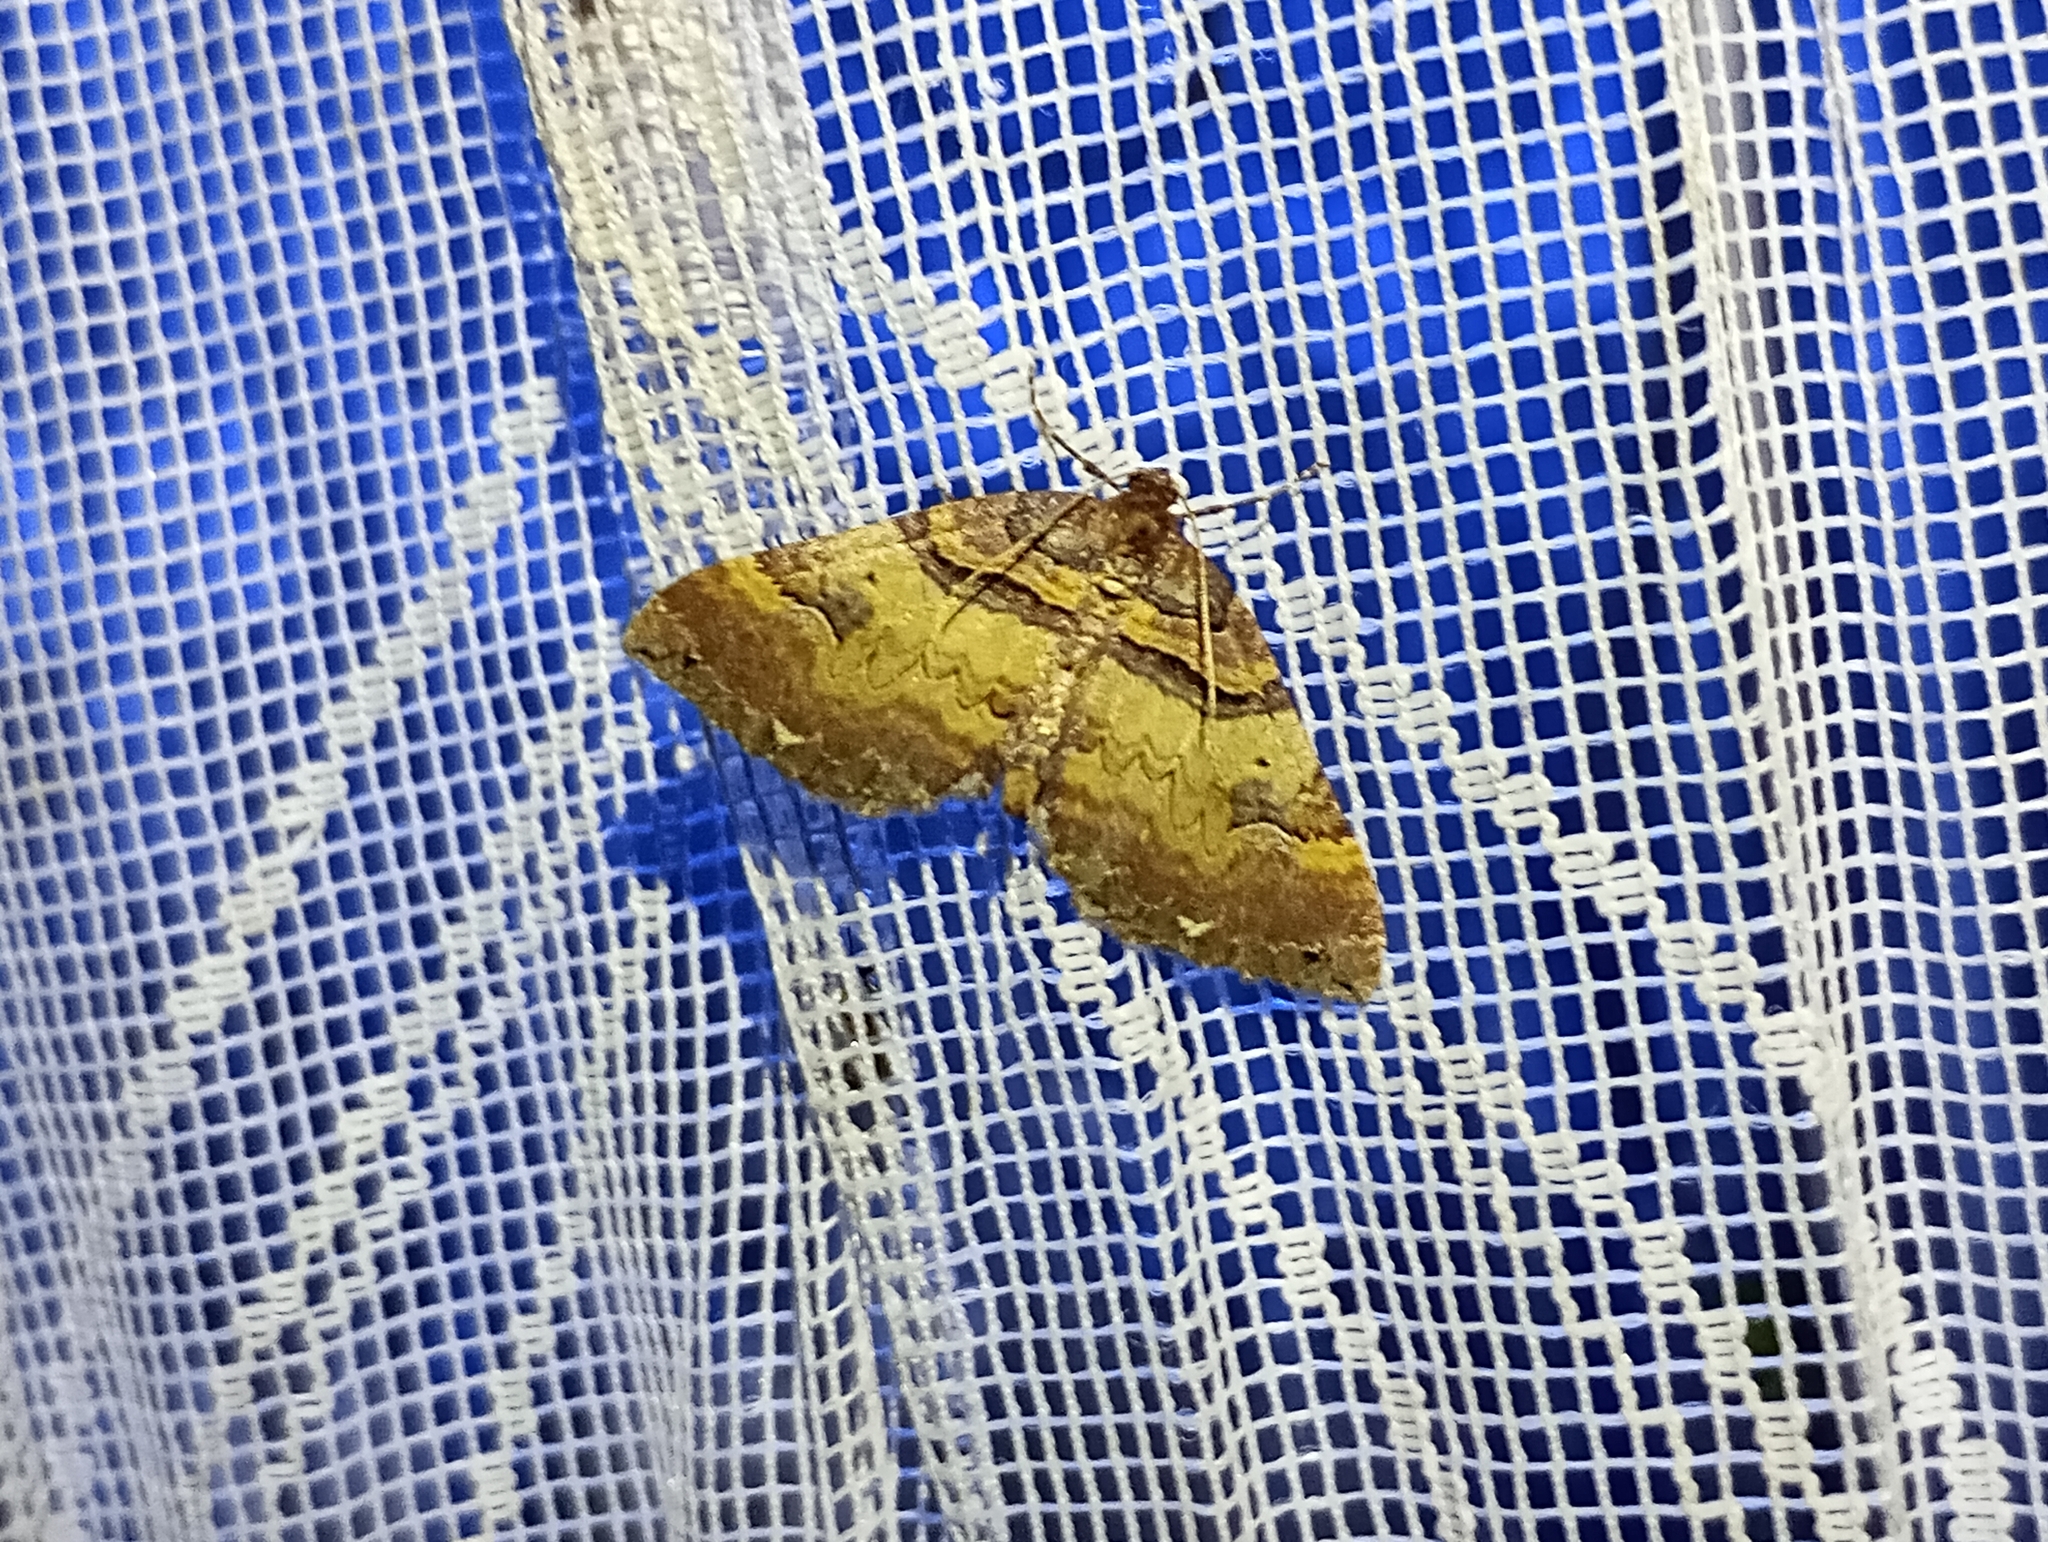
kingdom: Animalia
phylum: Arthropoda
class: Insecta
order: Lepidoptera
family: Geometridae
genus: Anticlea
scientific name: Anticlea badiata
